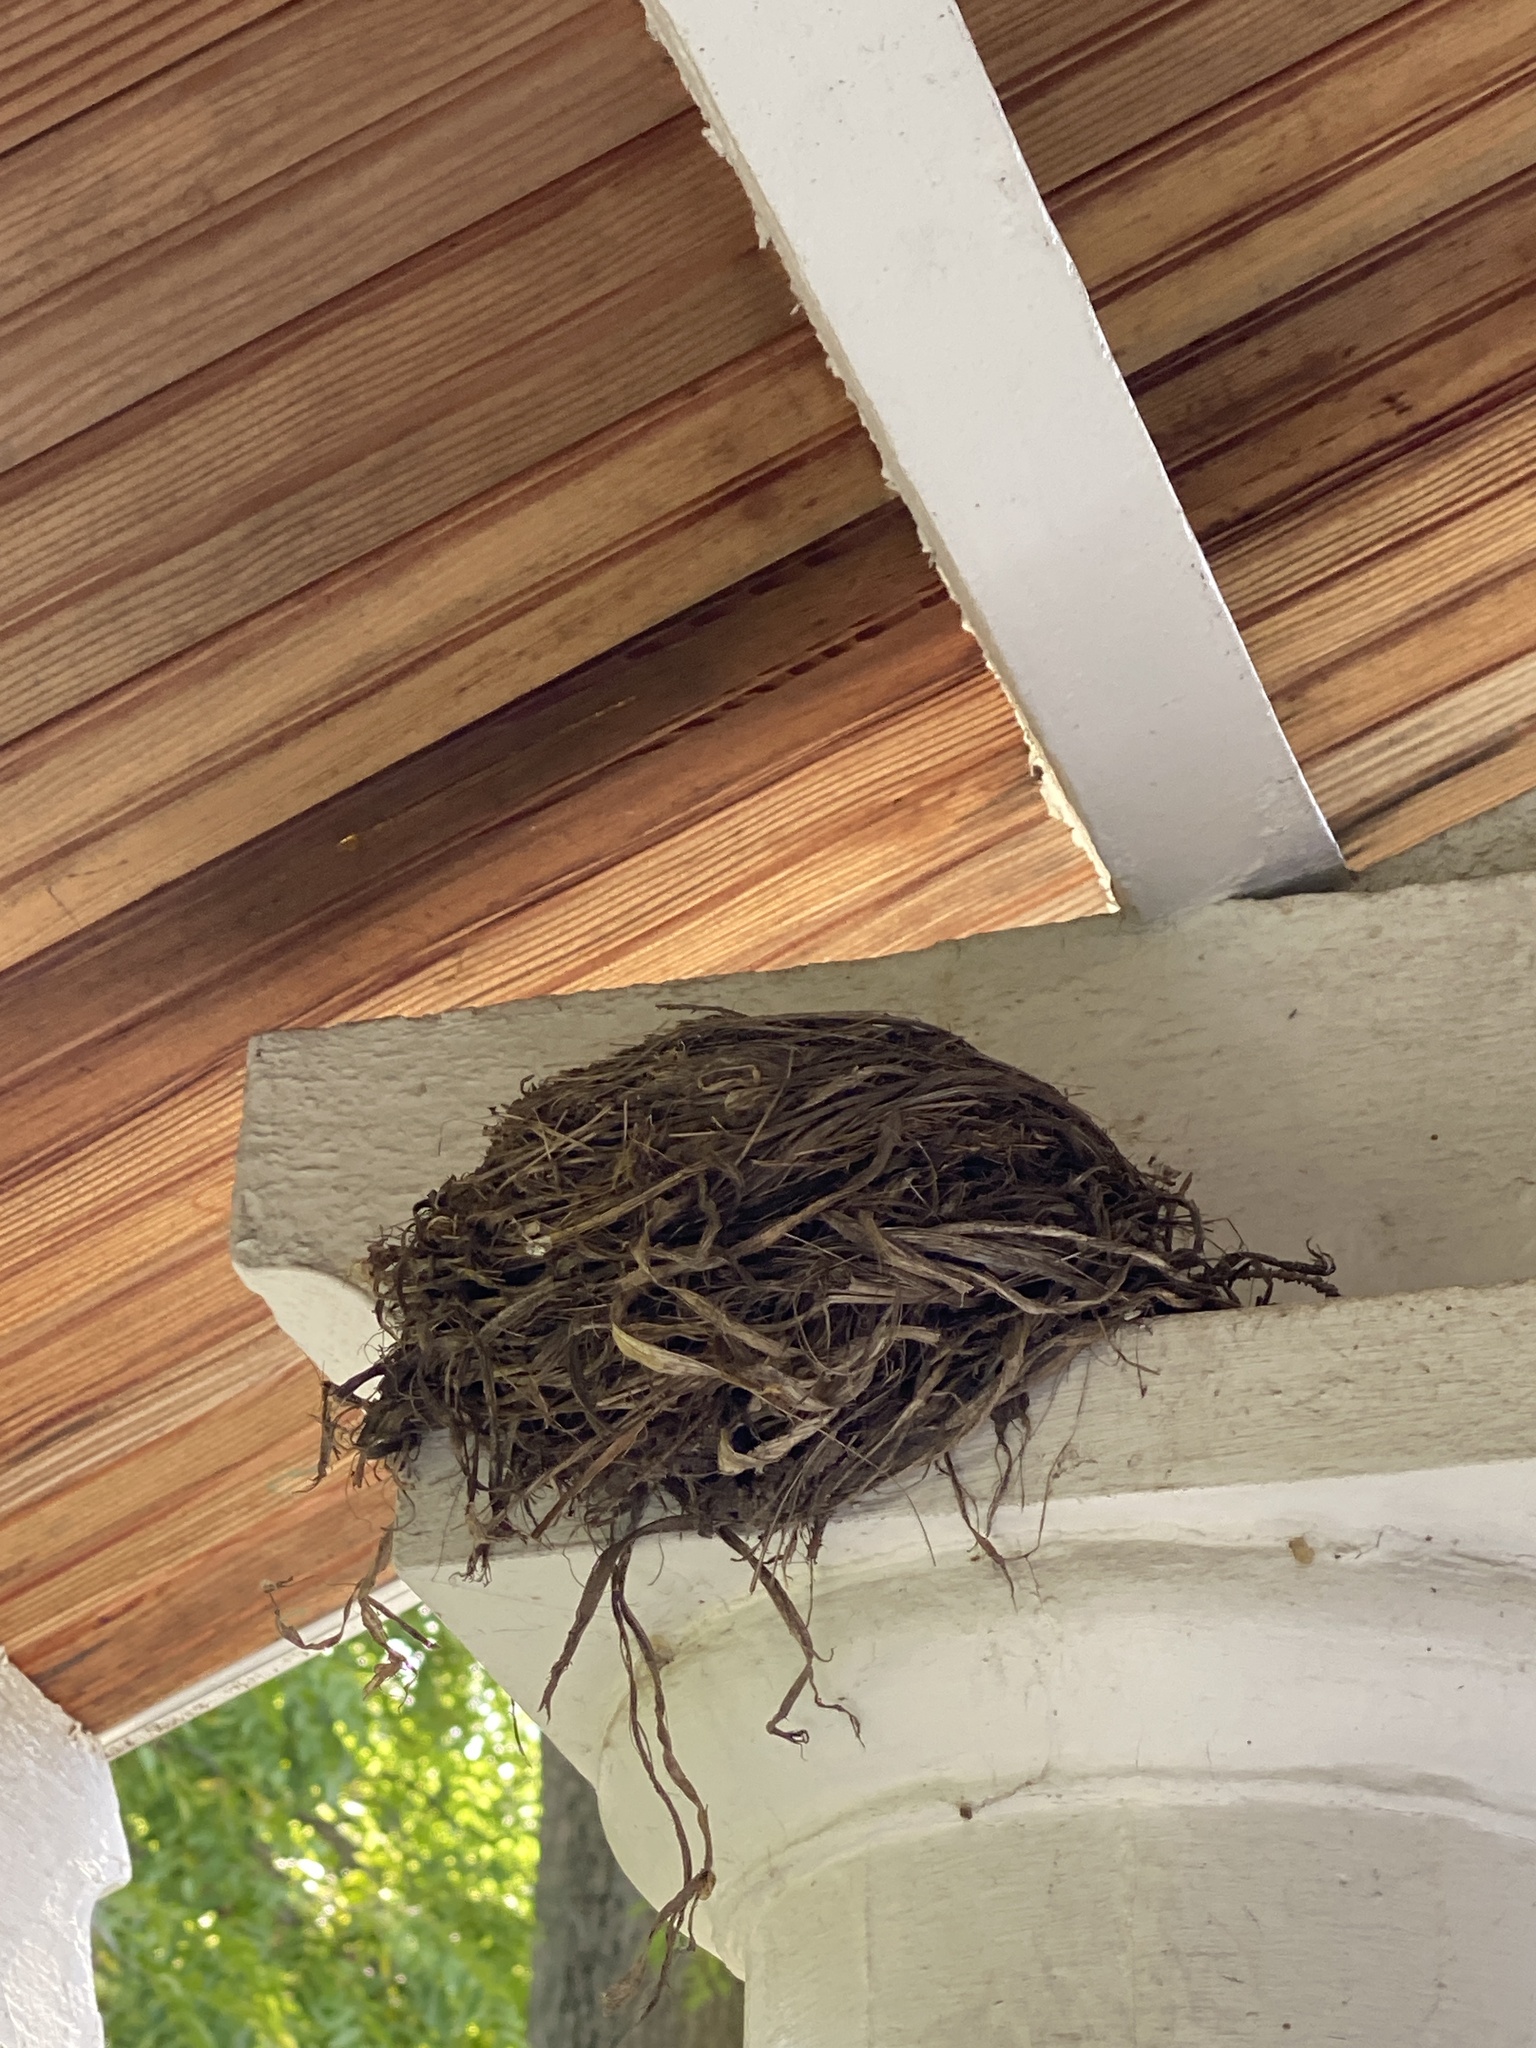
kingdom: Animalia
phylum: Chordata
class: Aves
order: Passeriformes
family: Turdidae
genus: Turdus
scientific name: Turdus migratorius
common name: American robin
